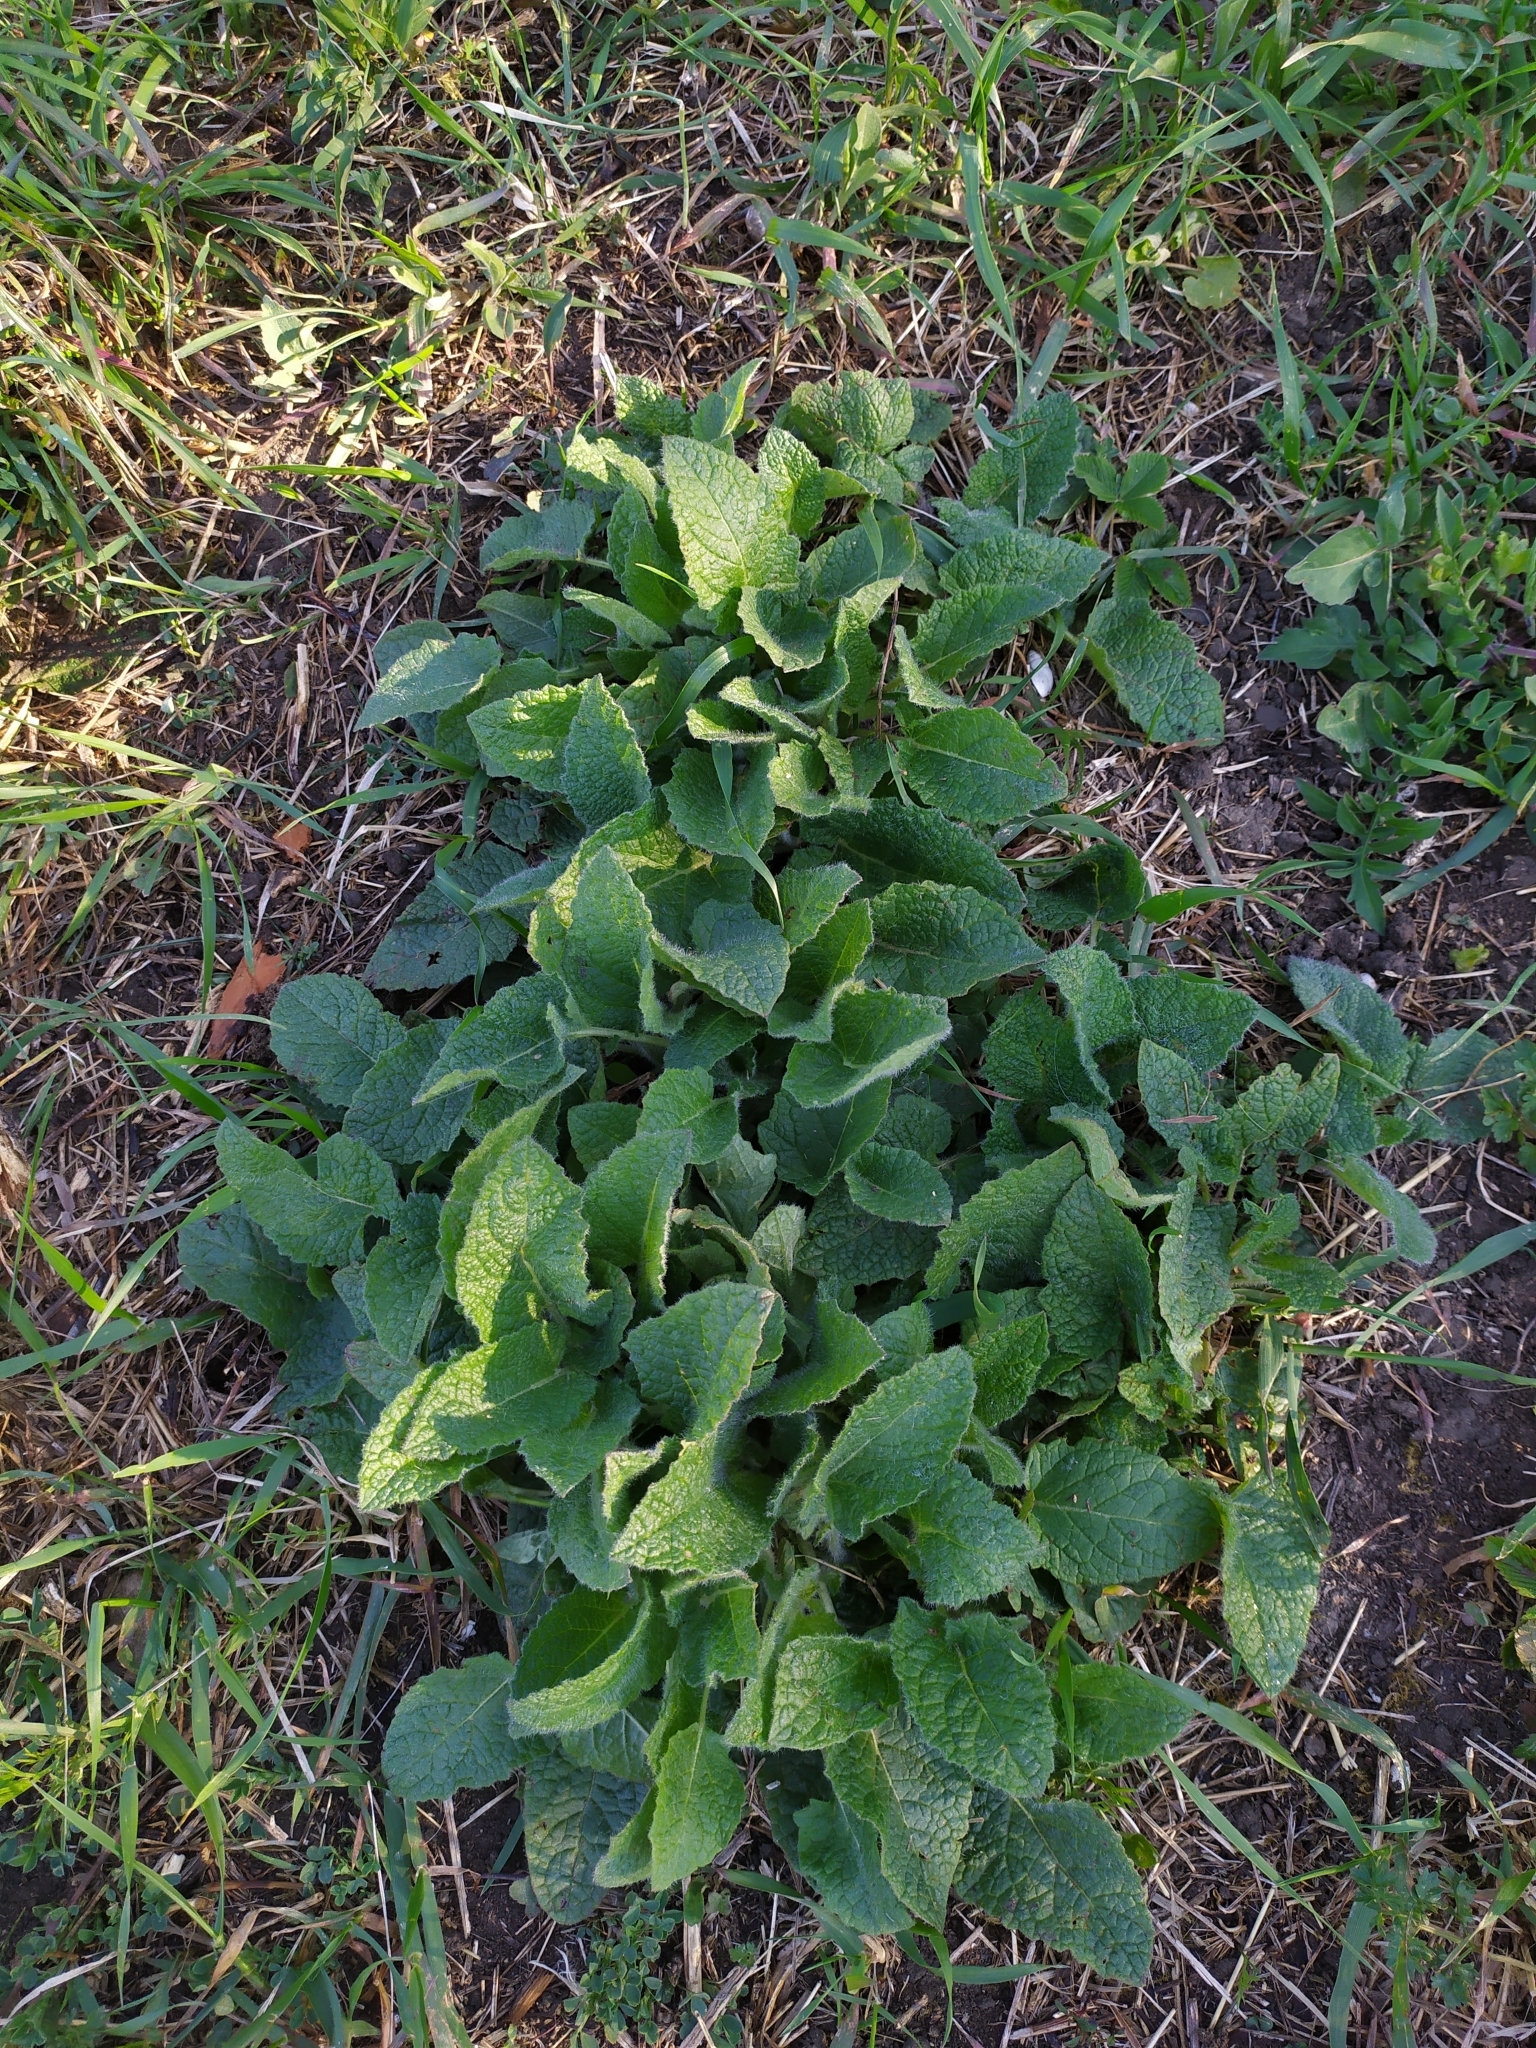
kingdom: Plantae
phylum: Tracheophyta
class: Magnoliopsida
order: Lamiales
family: Lamiaceae
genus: Salvia
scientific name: Salvia verticillata
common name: Whorled clary
